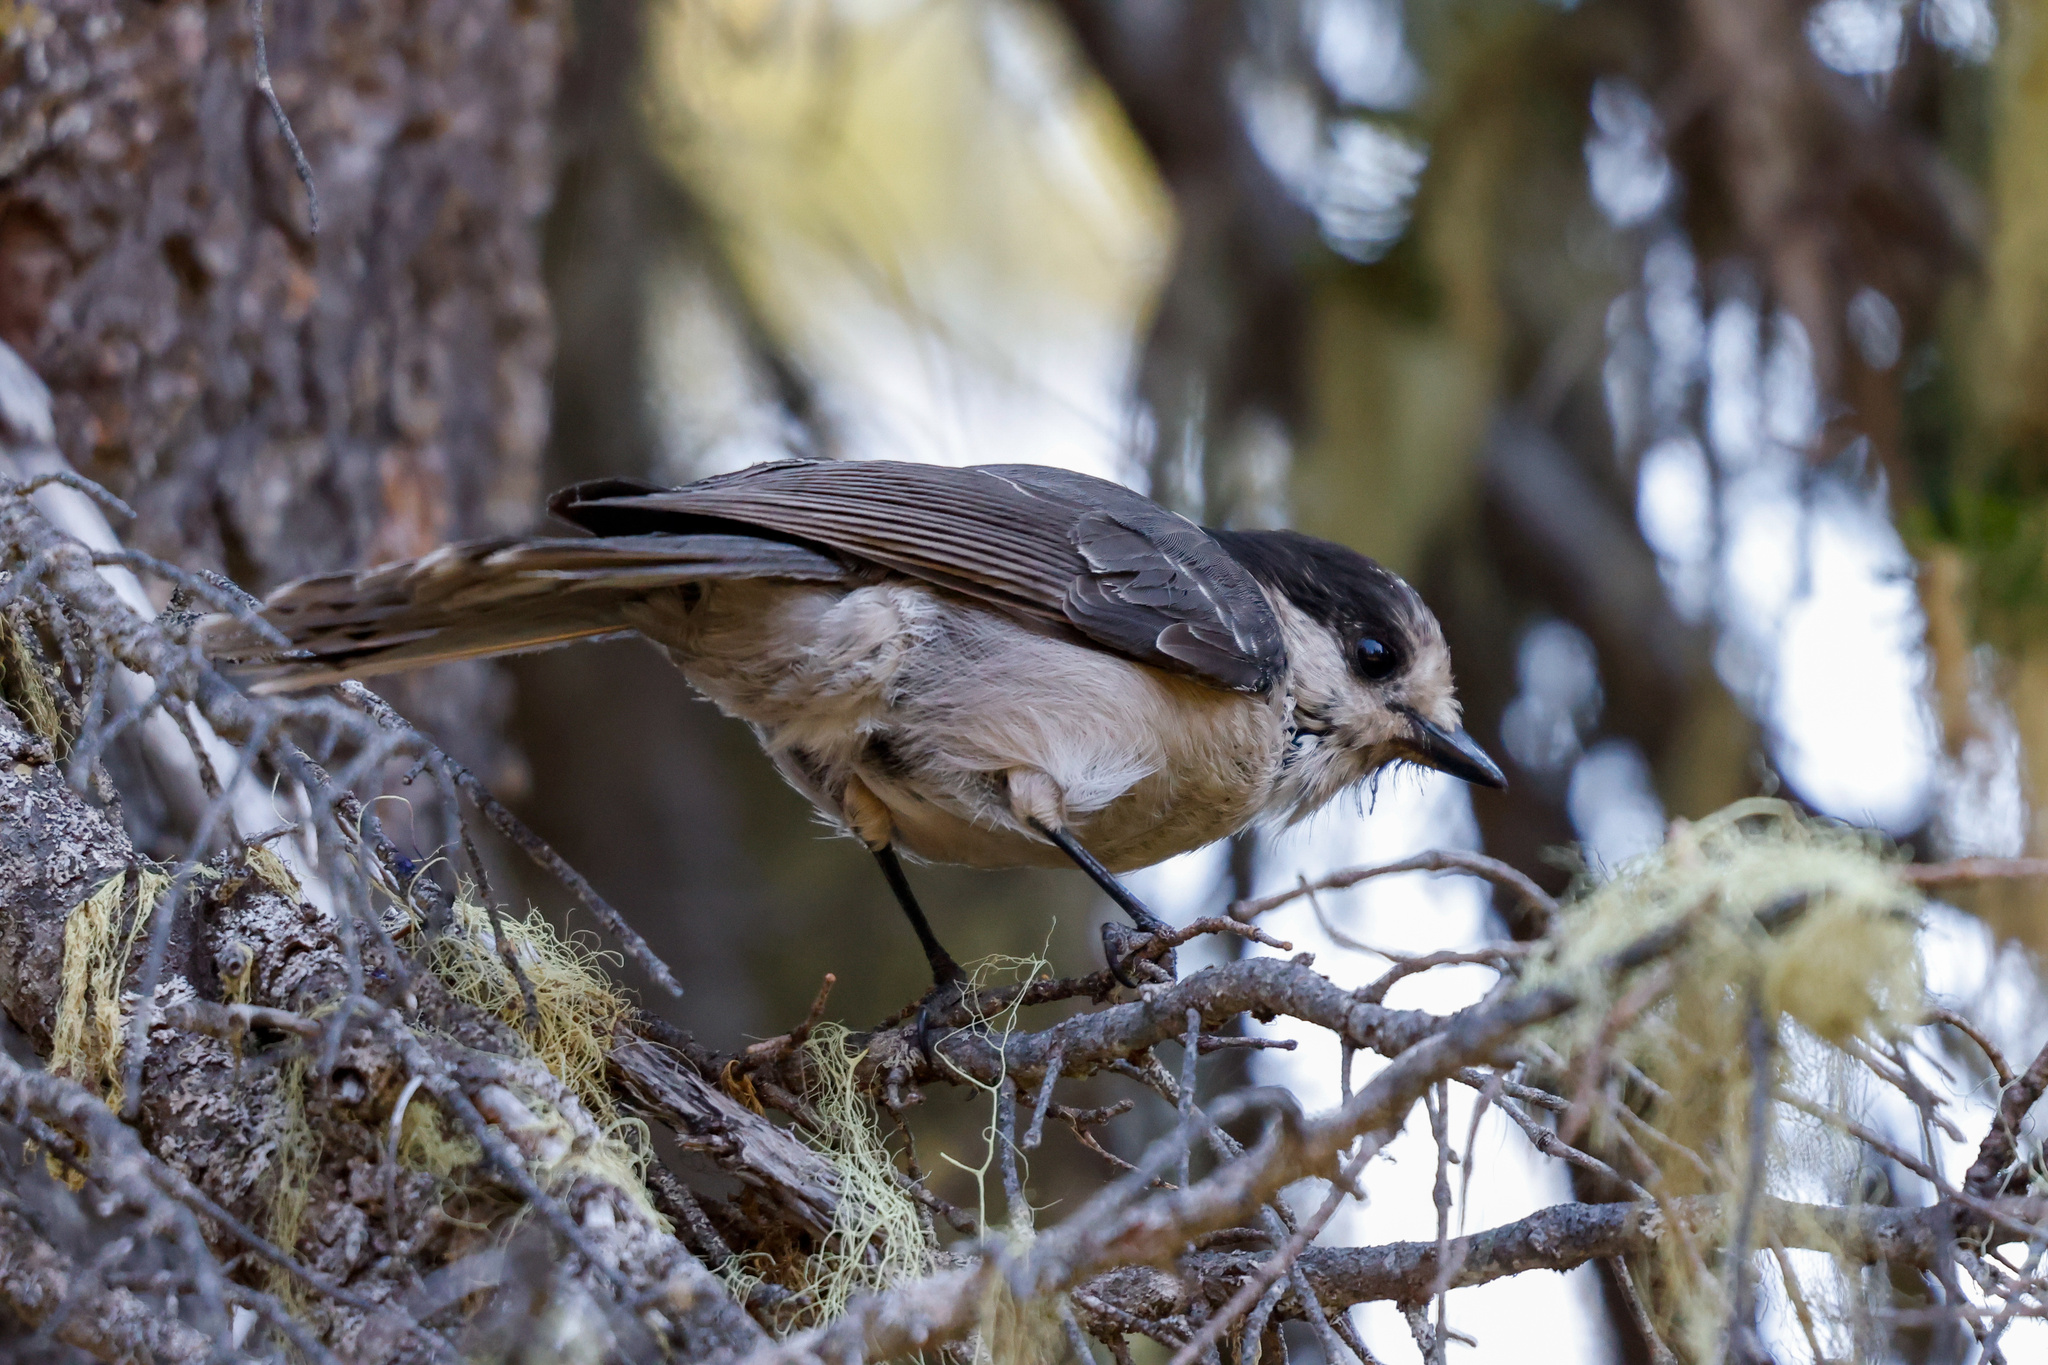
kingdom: Animalia
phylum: Chordata
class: Aves
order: Passeriformes
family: Corvidae
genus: Perisoreus
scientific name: Perisoreus canadensis
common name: Gray jay
